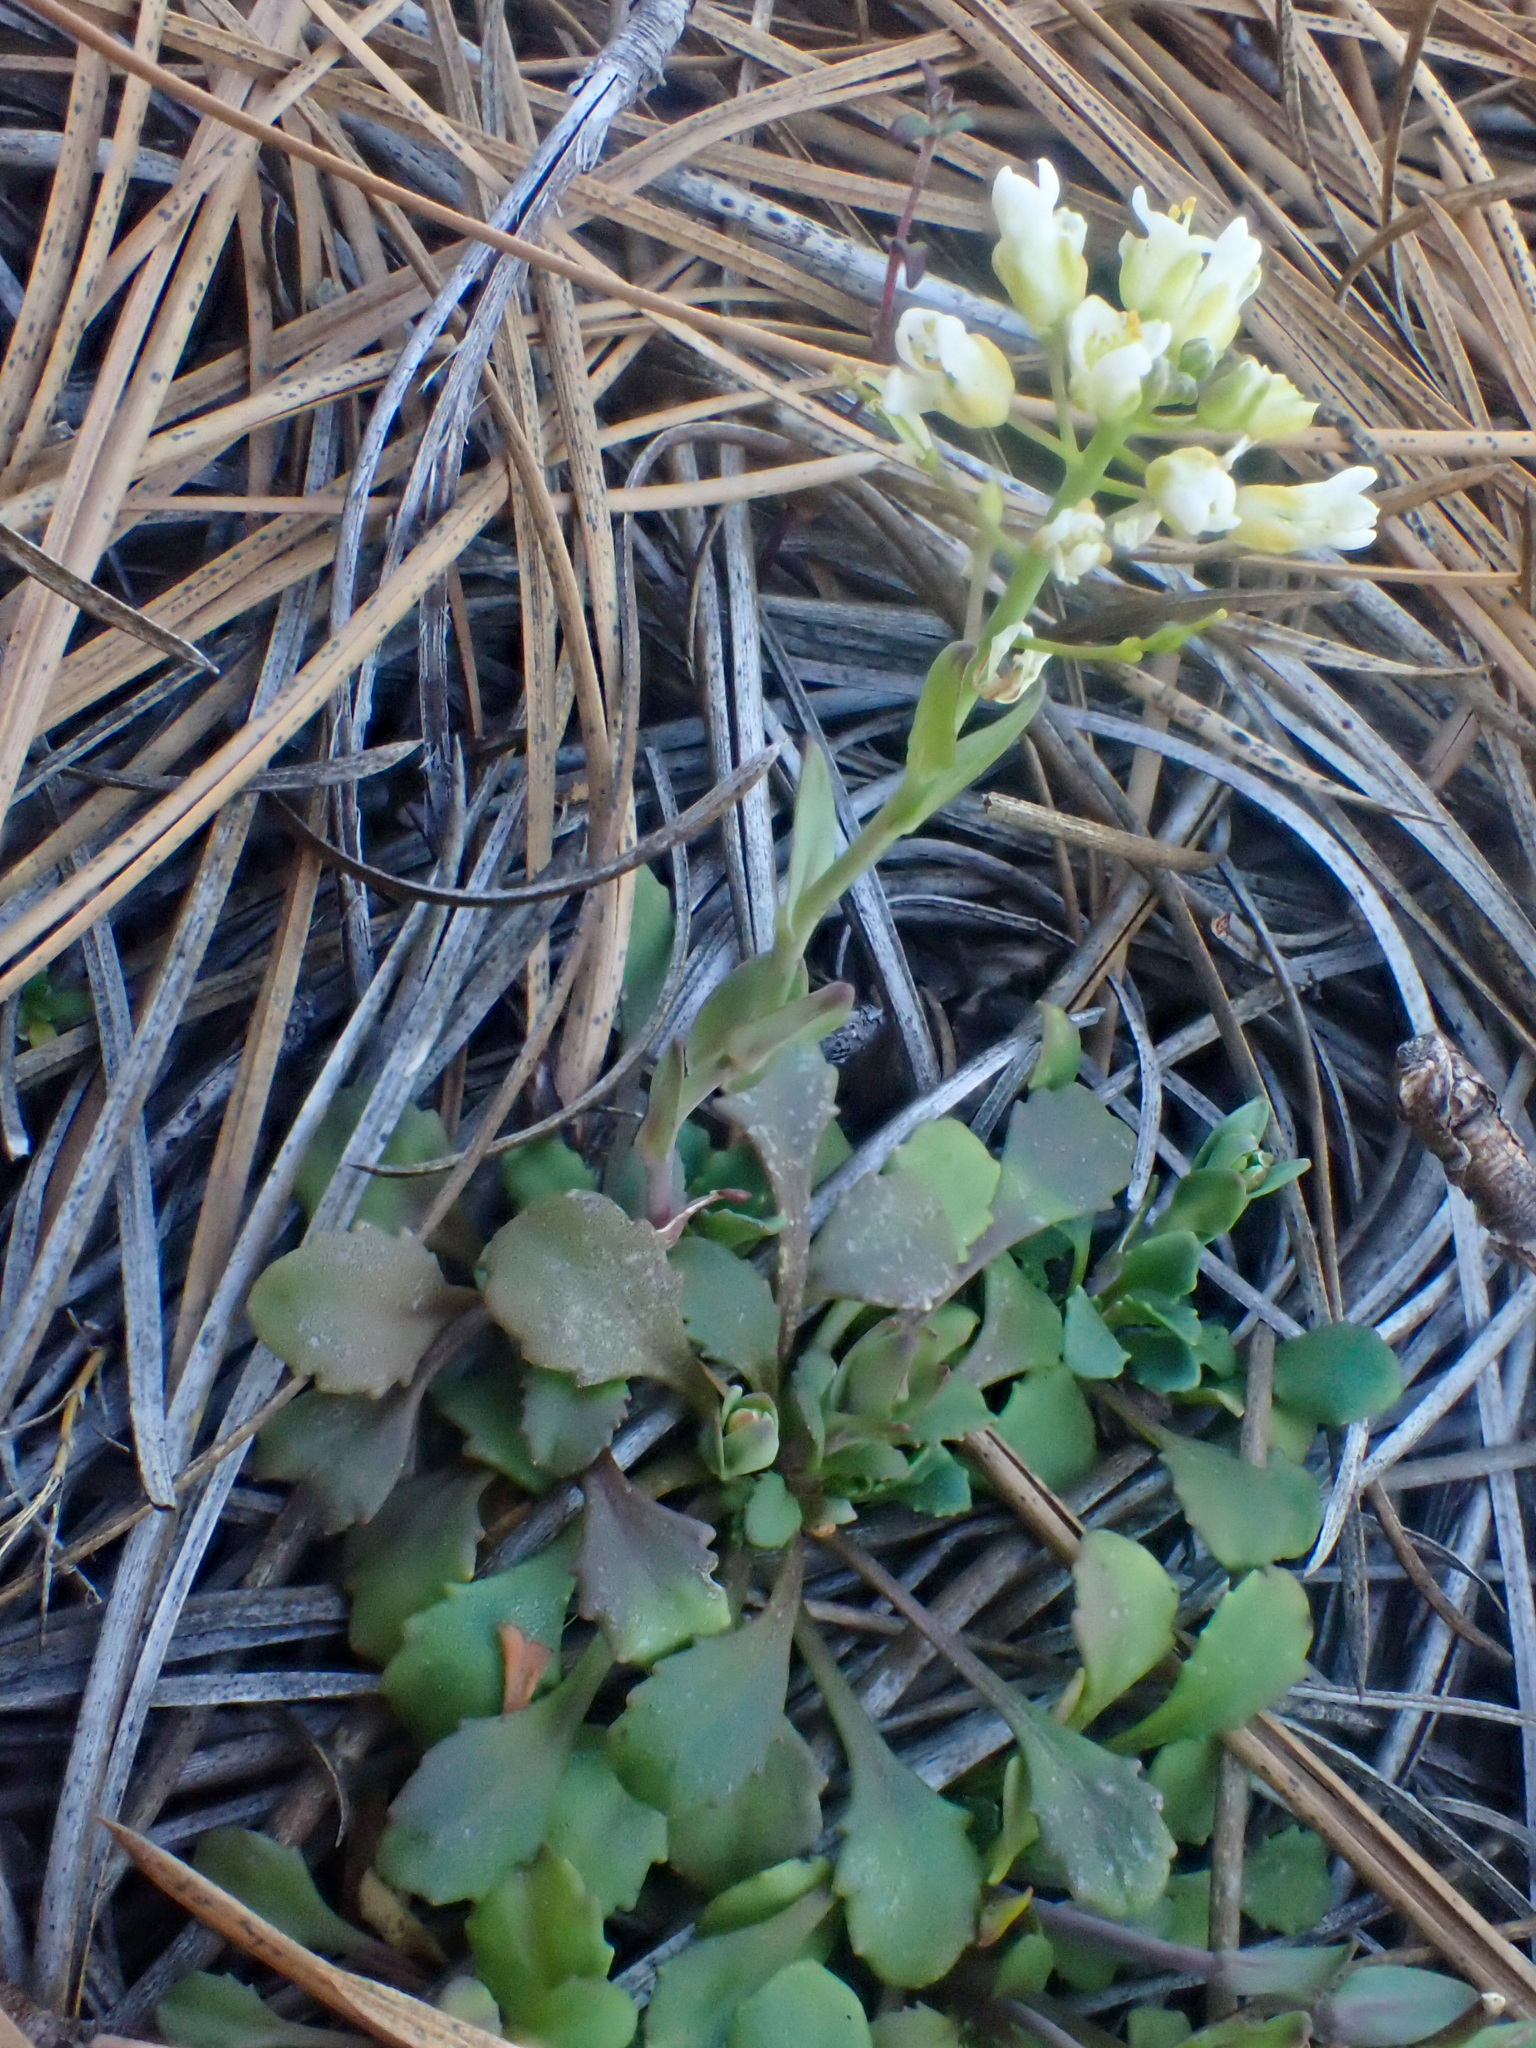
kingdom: Plantae
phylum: Tracheophyta
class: Magnoliopsida
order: Brassicales
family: Brassicaceae
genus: Noccaea
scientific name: Noccaea fendleri
